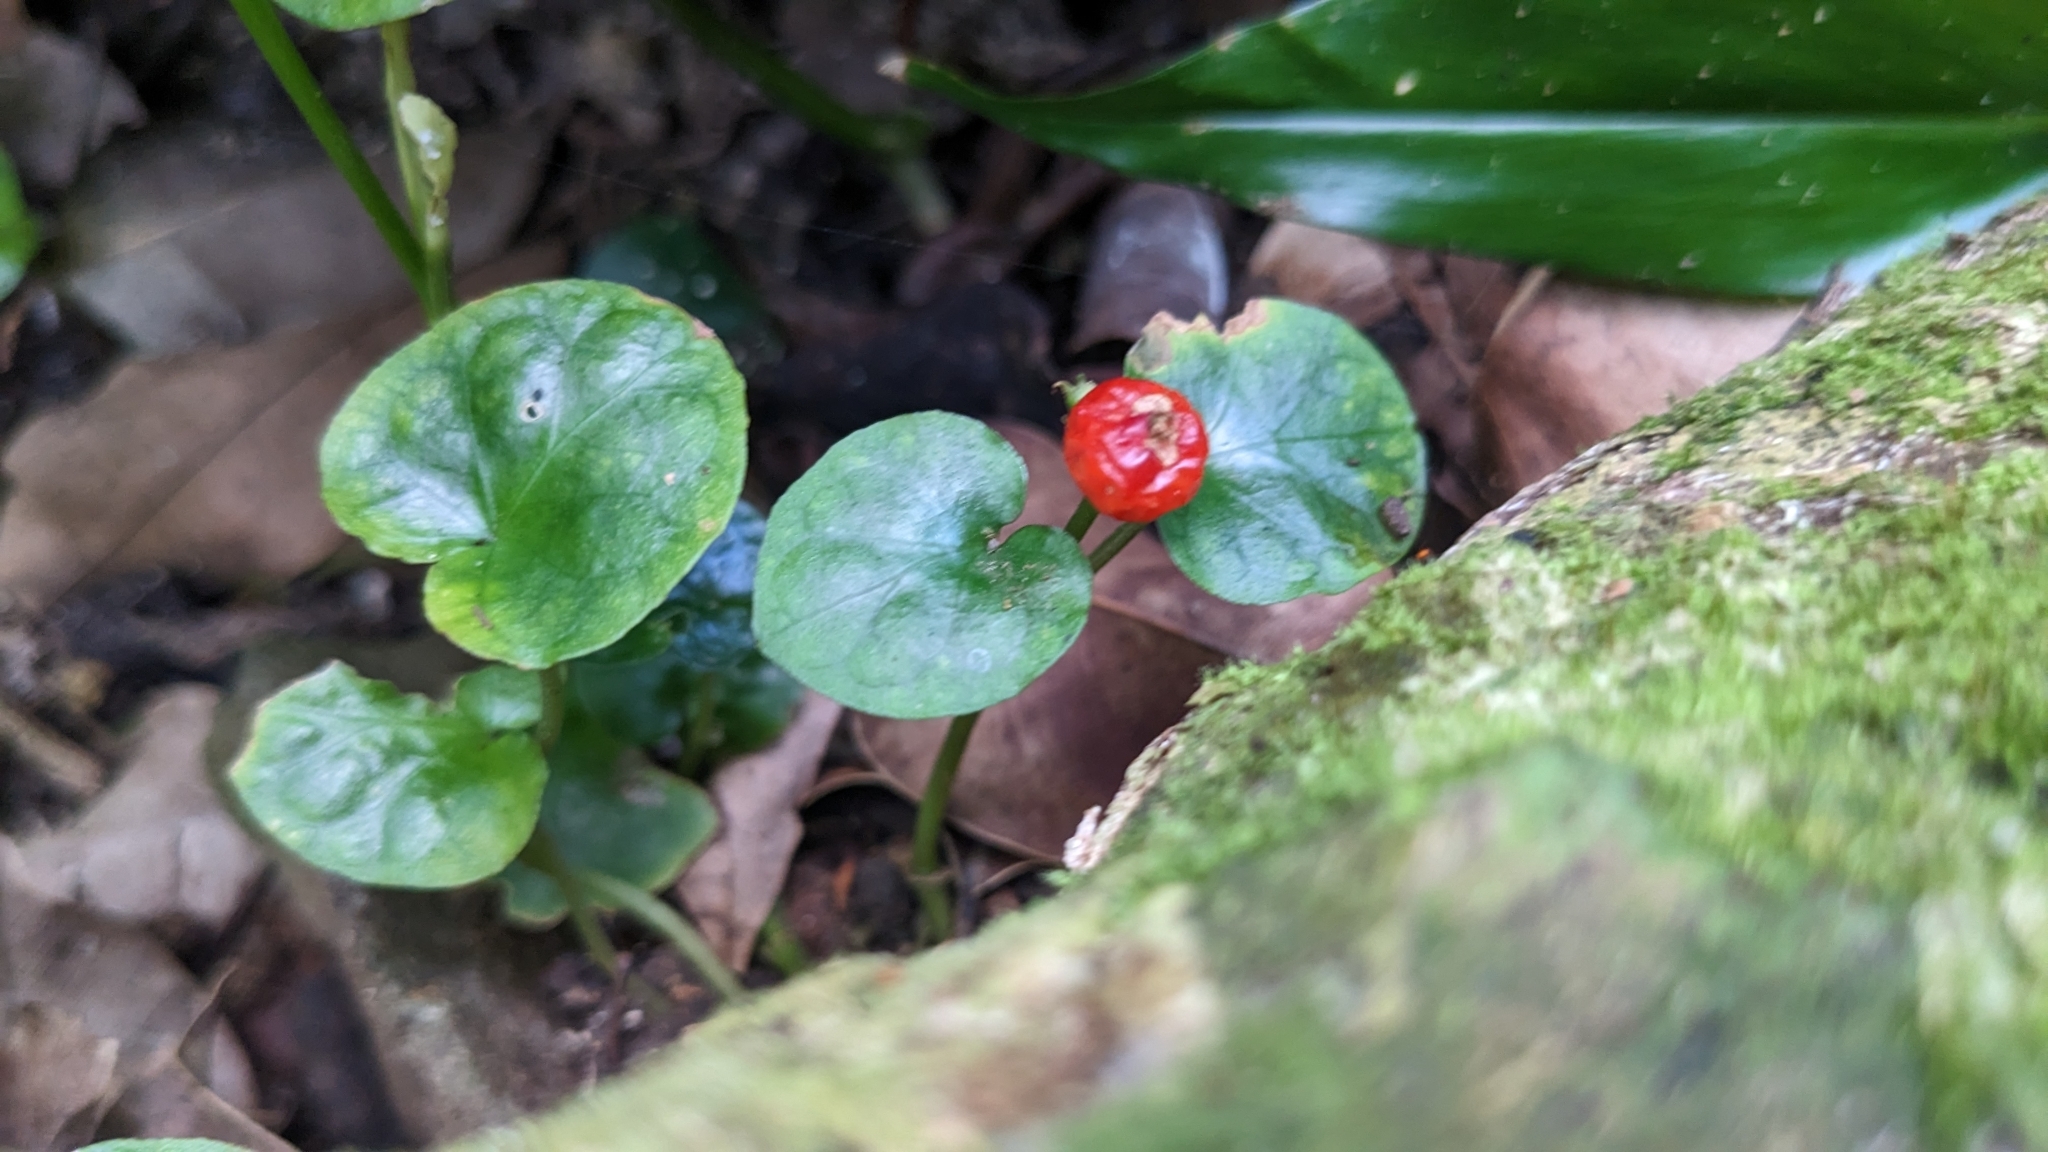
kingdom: Plantae
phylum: Tracheophyta
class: Magnoliopsida
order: Gentianales
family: Rubiaceae
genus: Geophila
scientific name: Geophila herbacea
